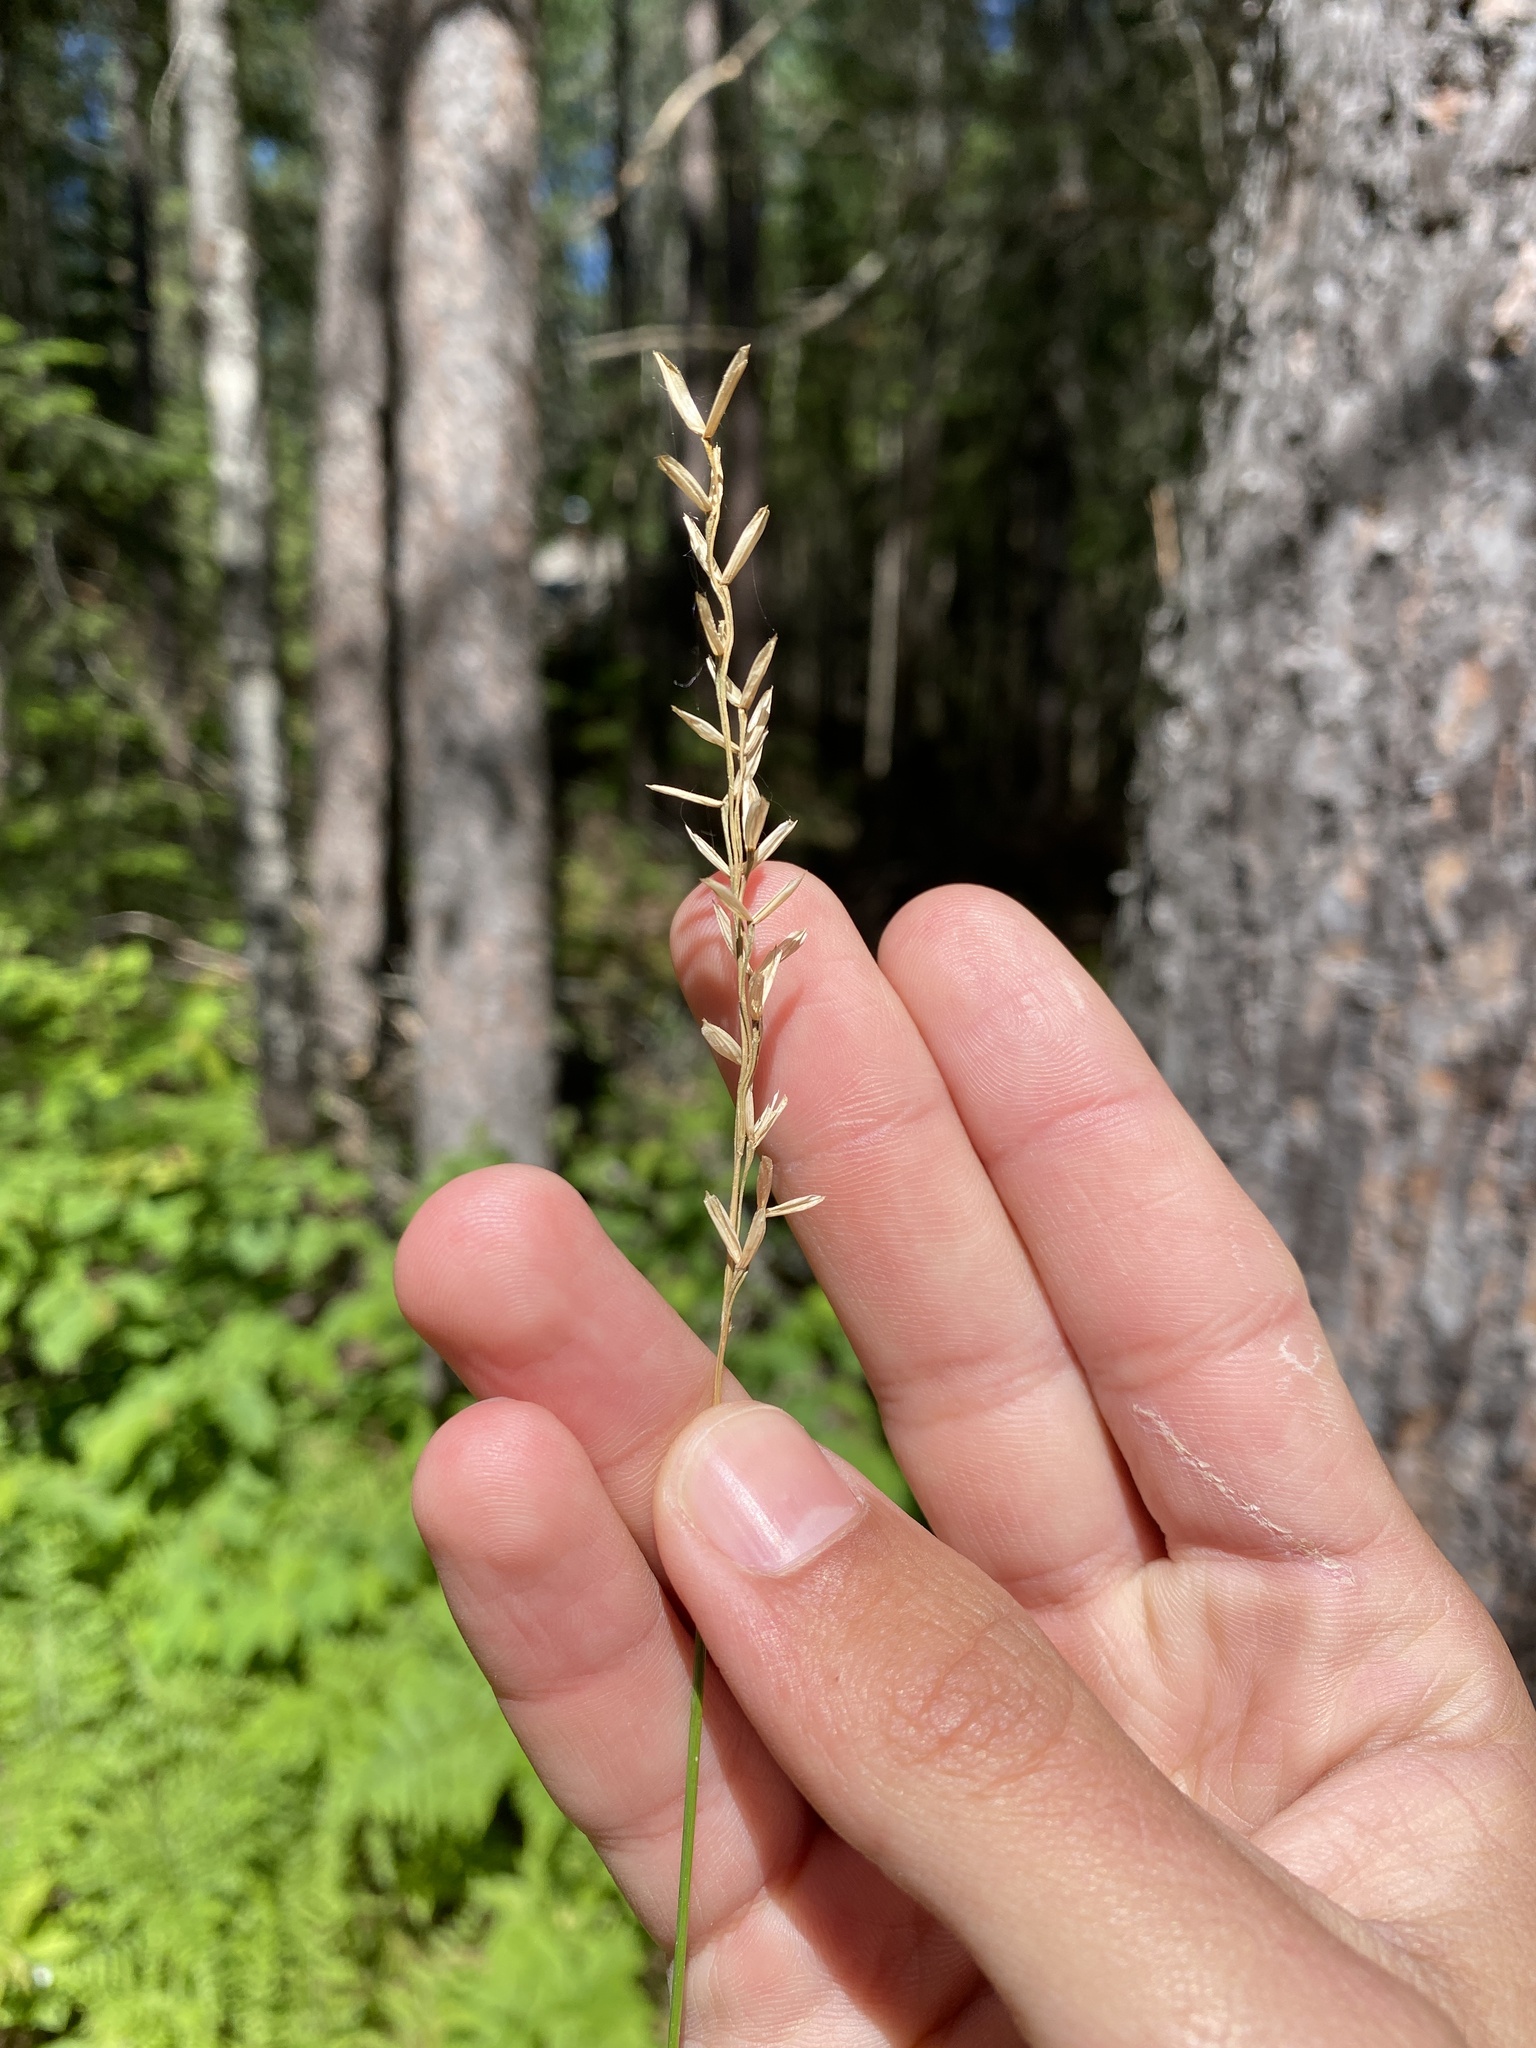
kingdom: Plantae
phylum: Tracheophyta
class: Liliopsida
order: Poales
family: Poaceae
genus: Oryzopsis
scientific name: Oryzopsis asperifolia
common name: Rough-leaved mountain rice
